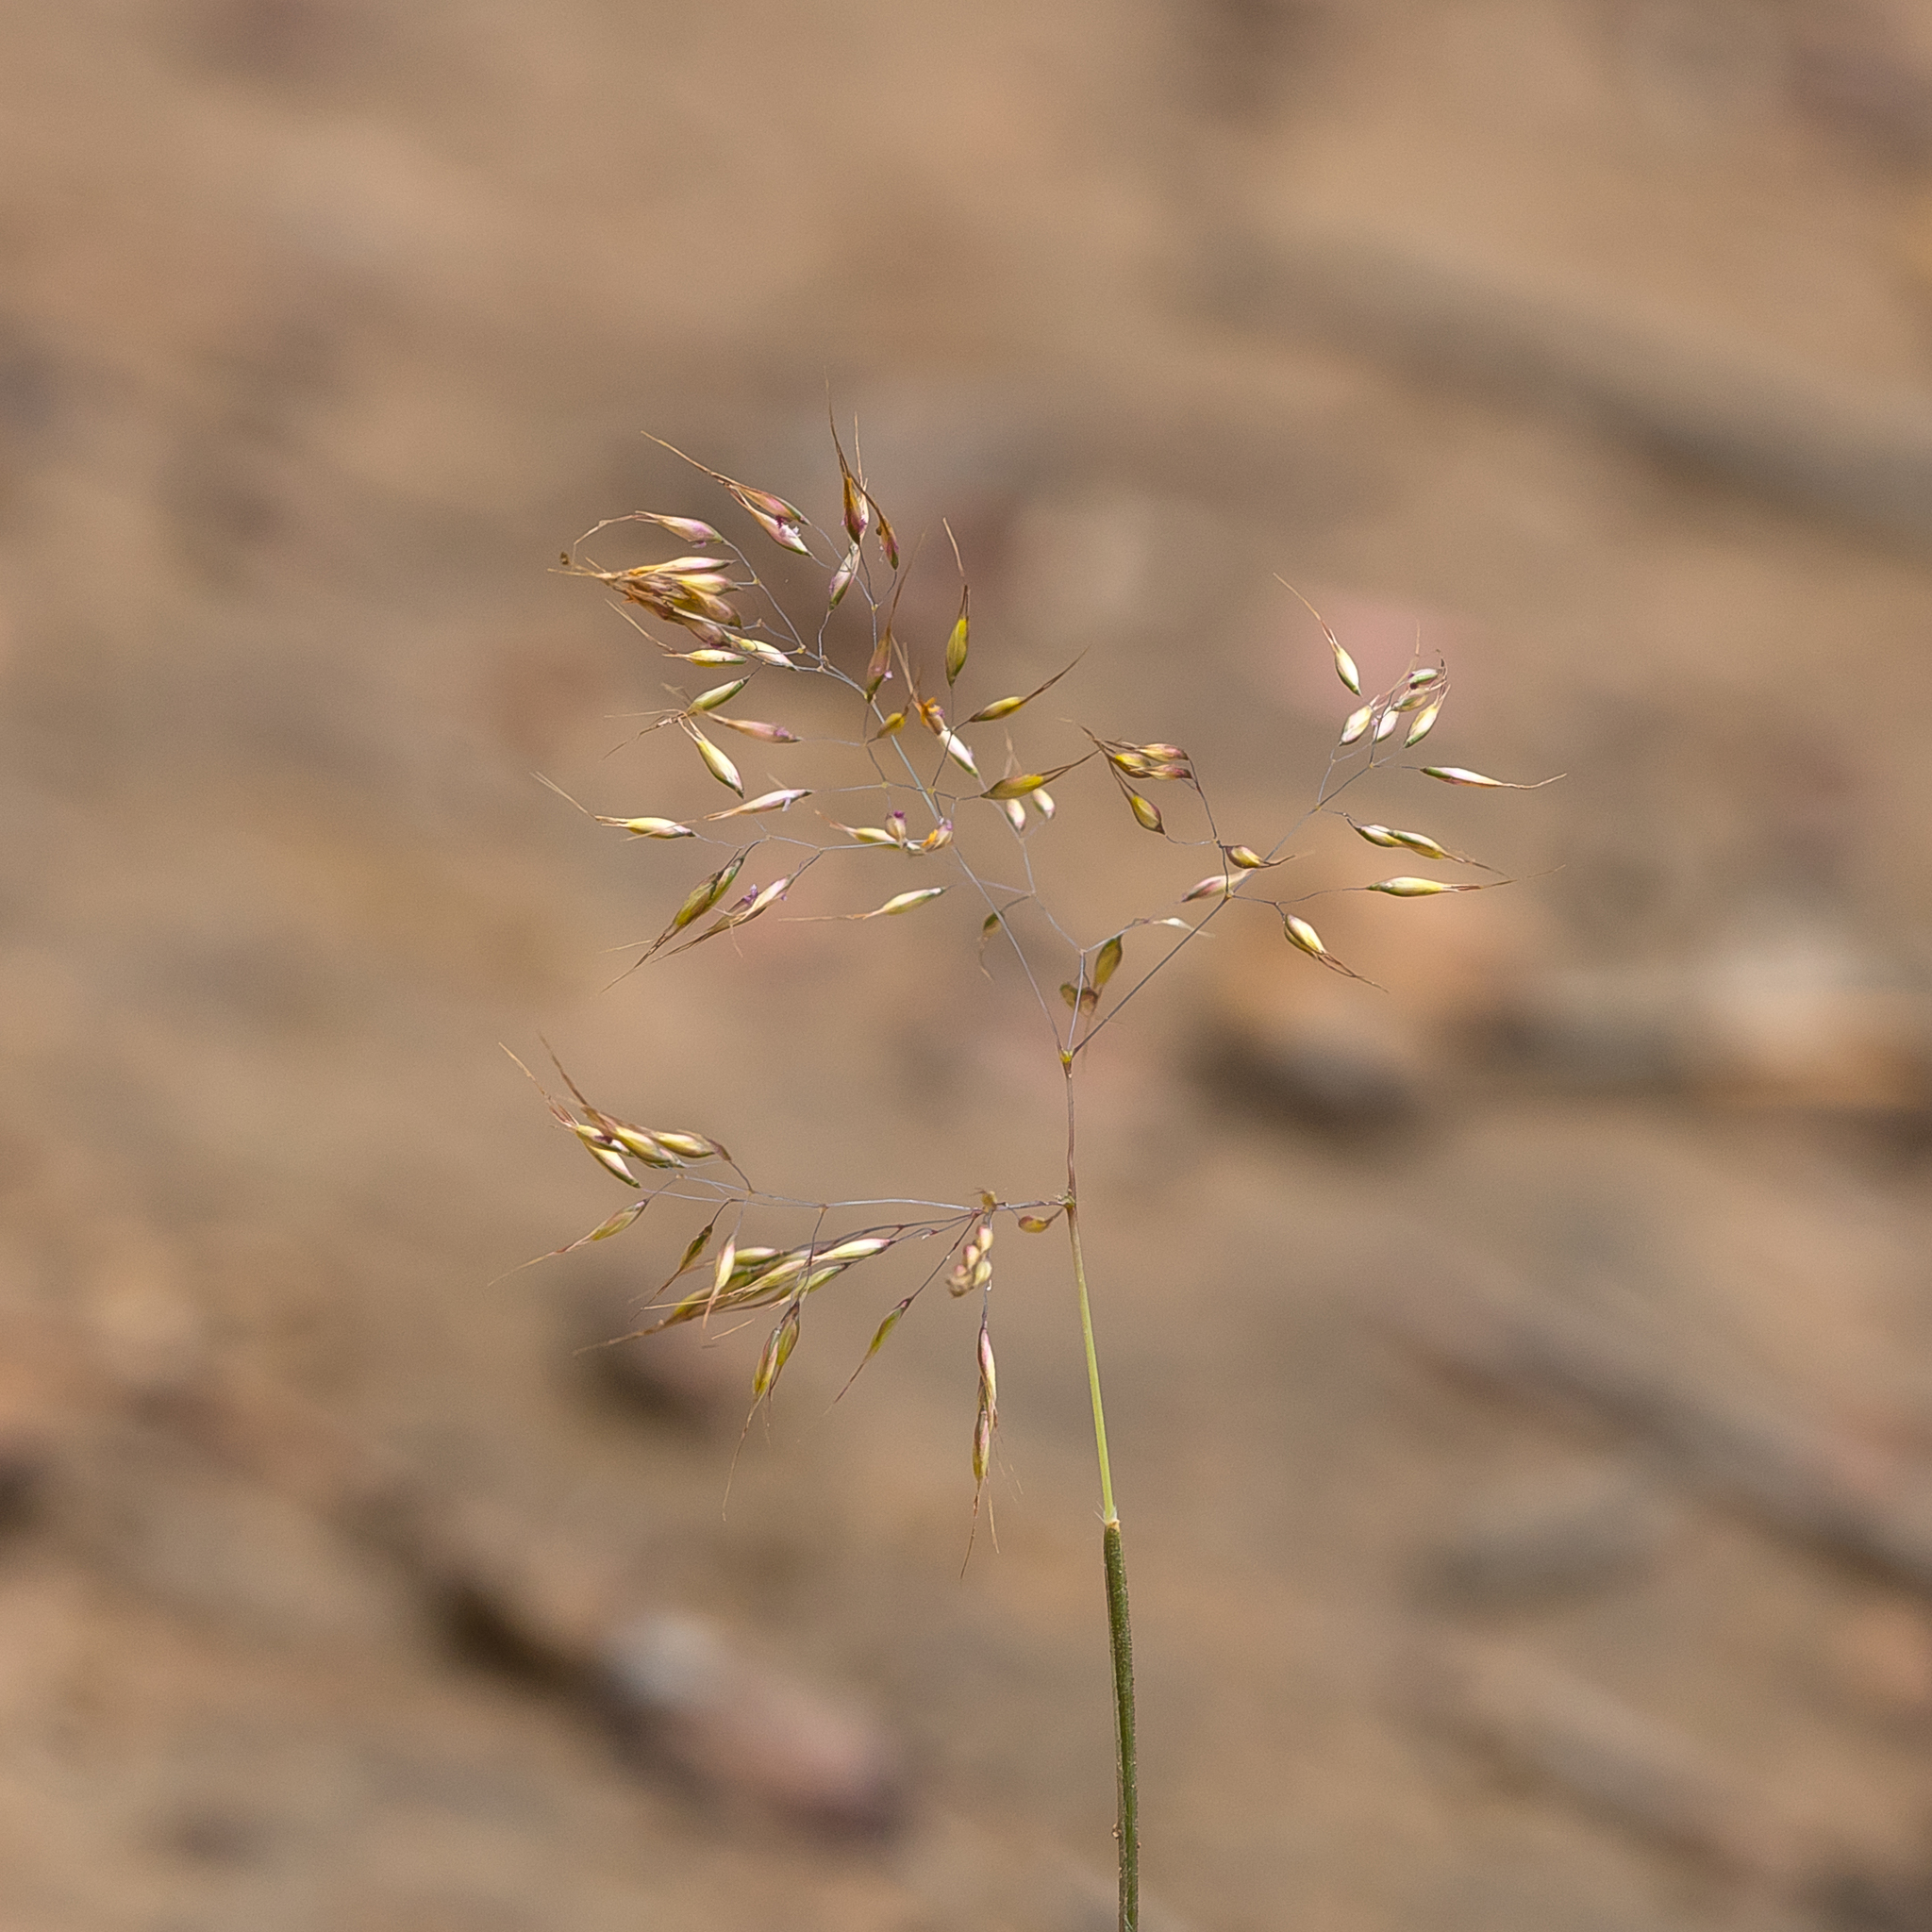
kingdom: Plantae
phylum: Tracheophyta
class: Liliopsida
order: Poales
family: Poaceae
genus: Pentameris
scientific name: Pentameris pallida
